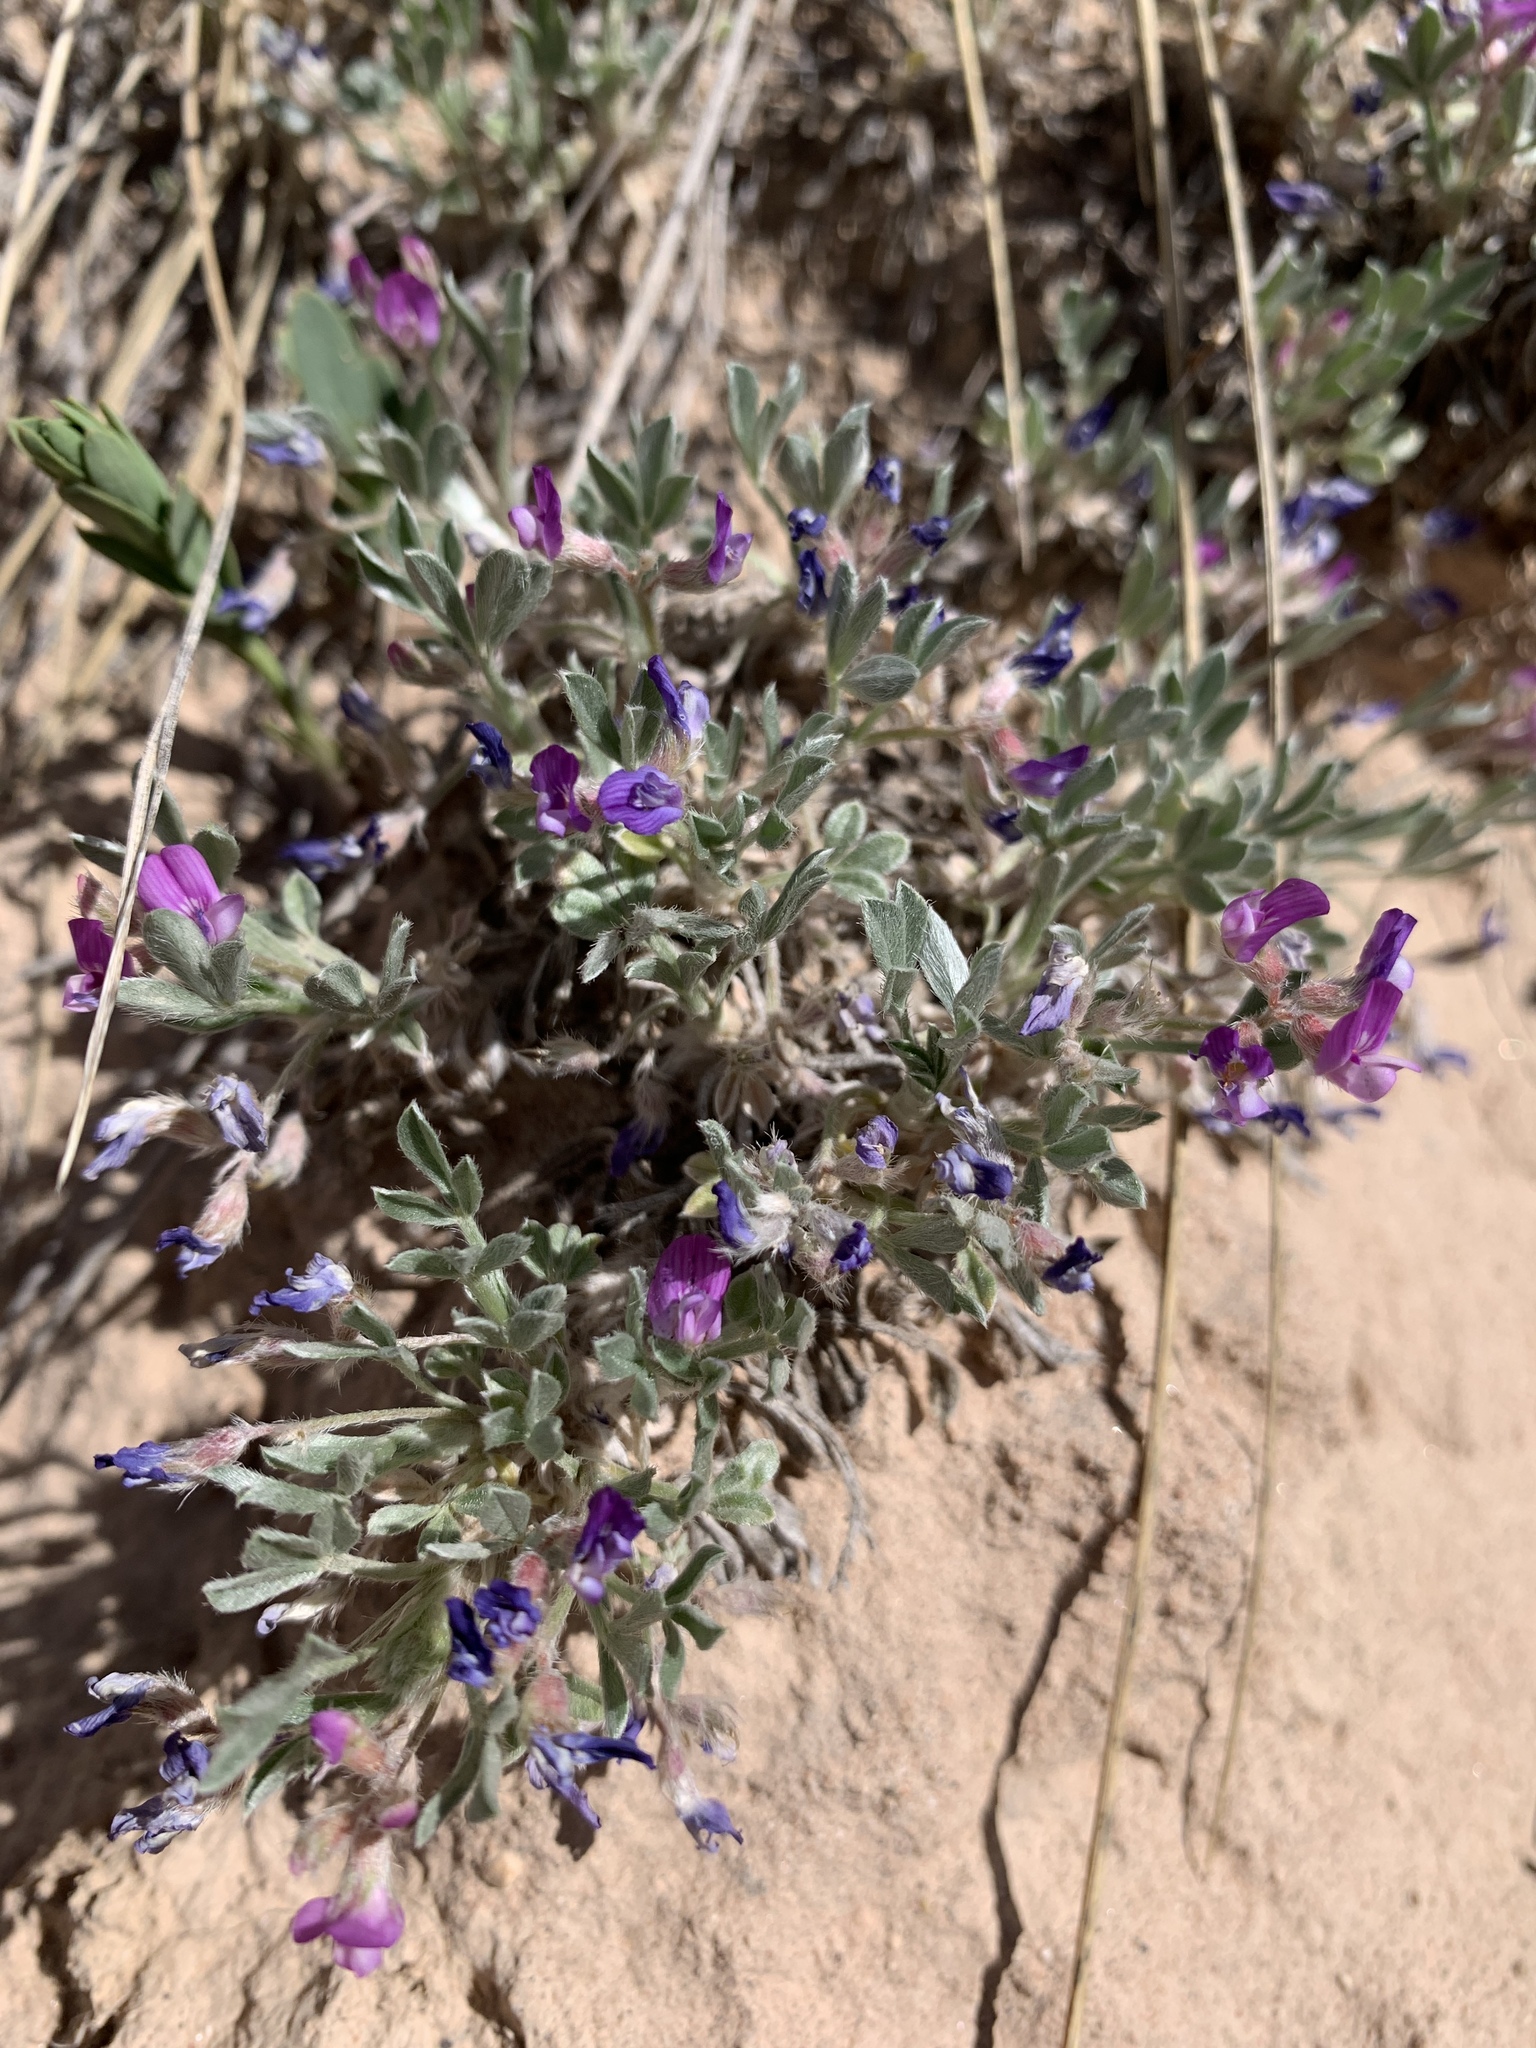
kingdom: Plantae
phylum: Tracheophyta
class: Magnoliopsida
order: Fabales
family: Fabaceae
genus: Astragalus
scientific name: Astragalus sericoleucus
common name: Silky orophaca
